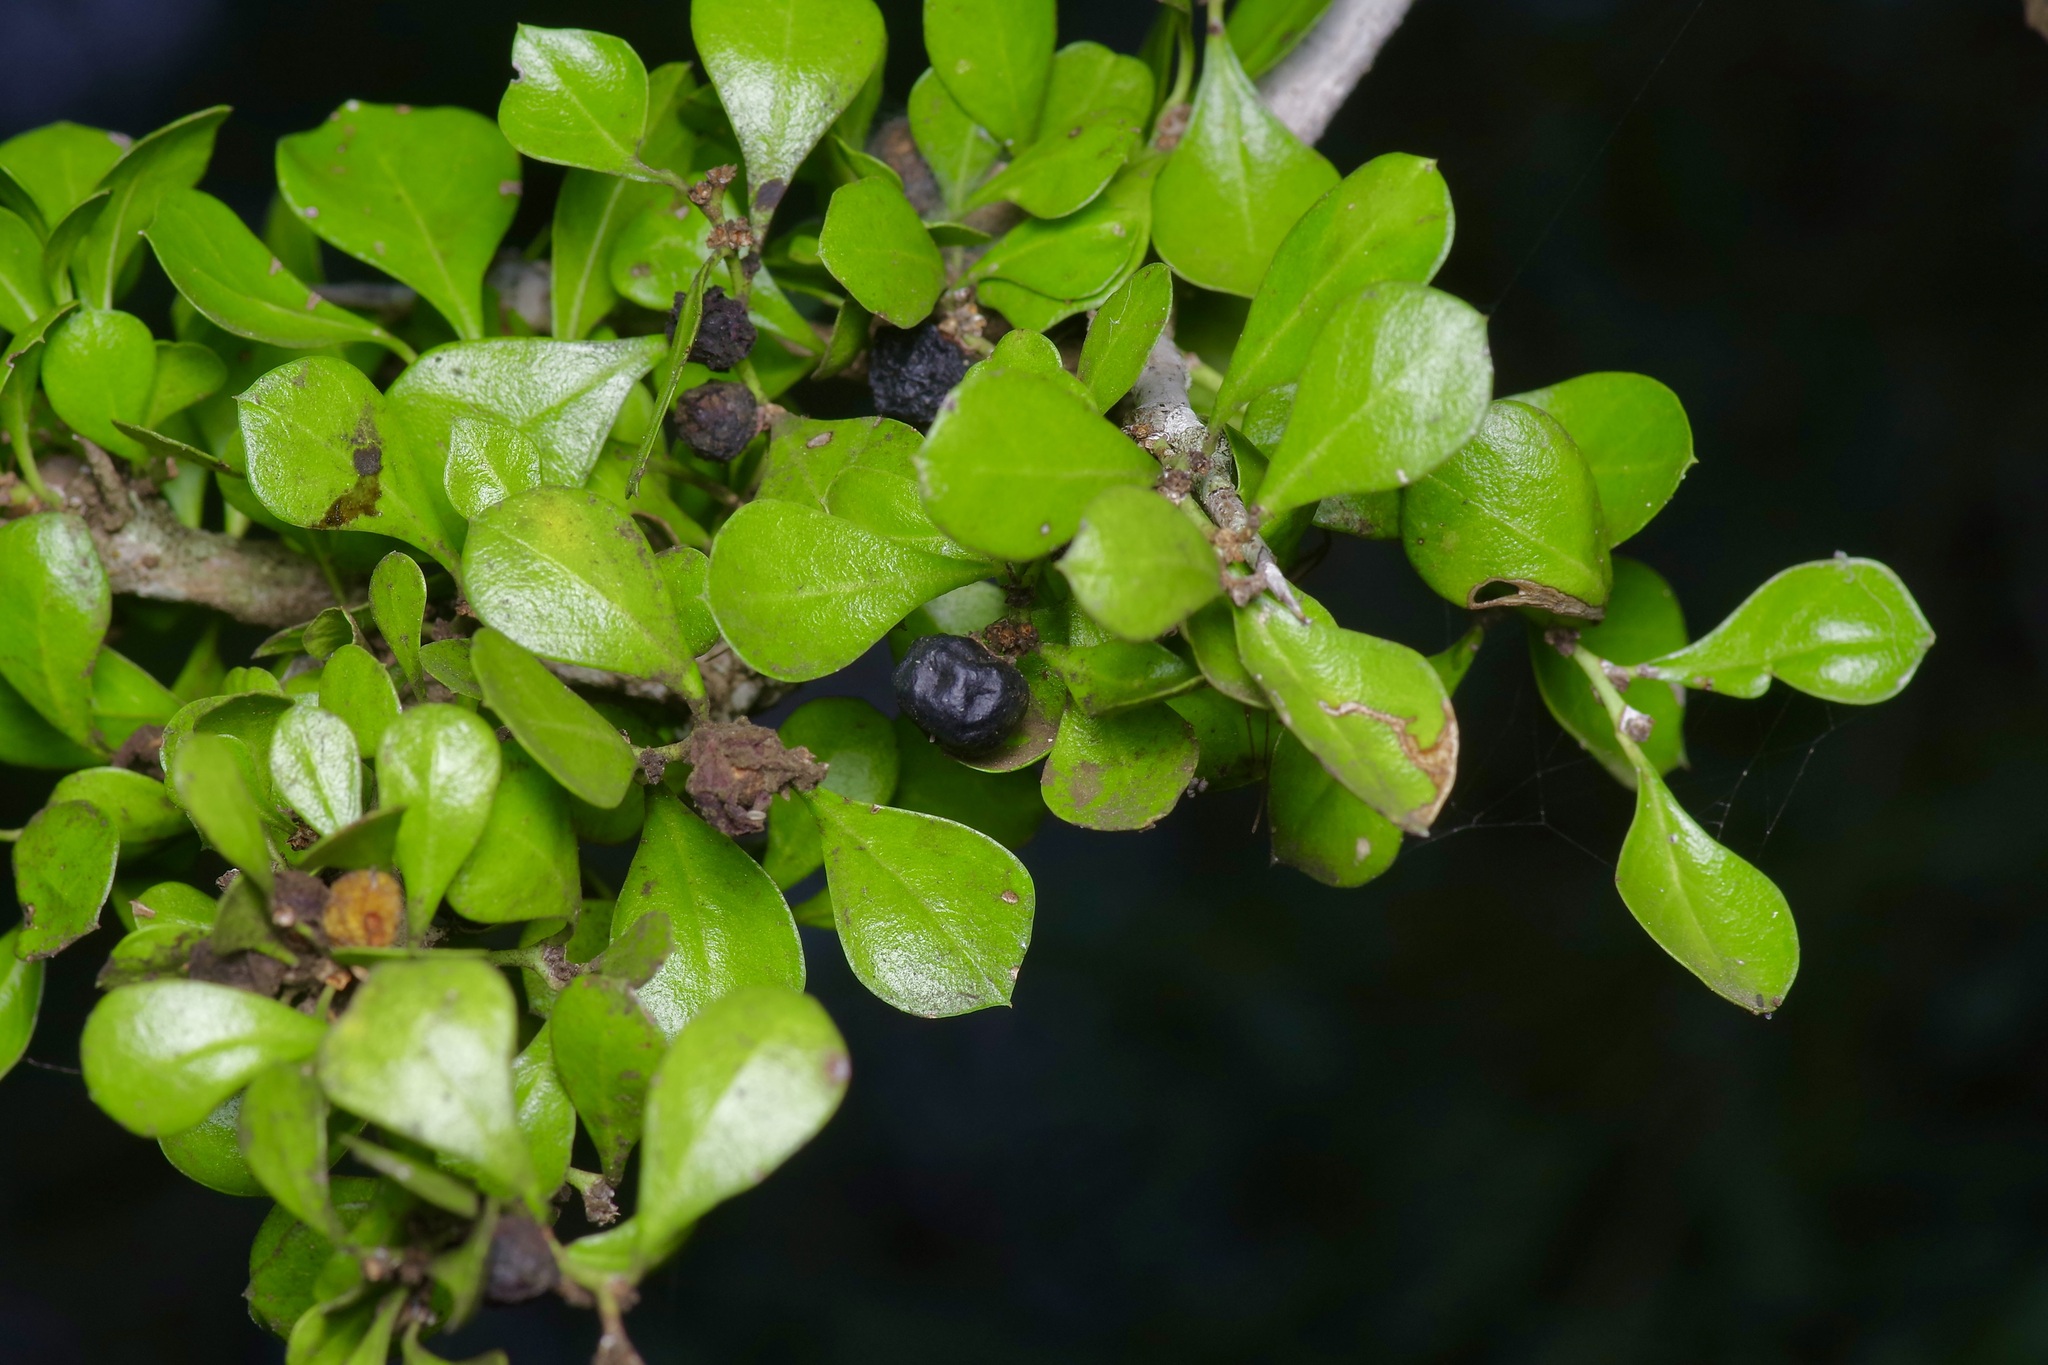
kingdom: Plantae
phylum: Tracheophyta
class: Magnoliopsida
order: Rosales
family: Rhamnaceae
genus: Condalia
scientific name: Condalia hookeri
